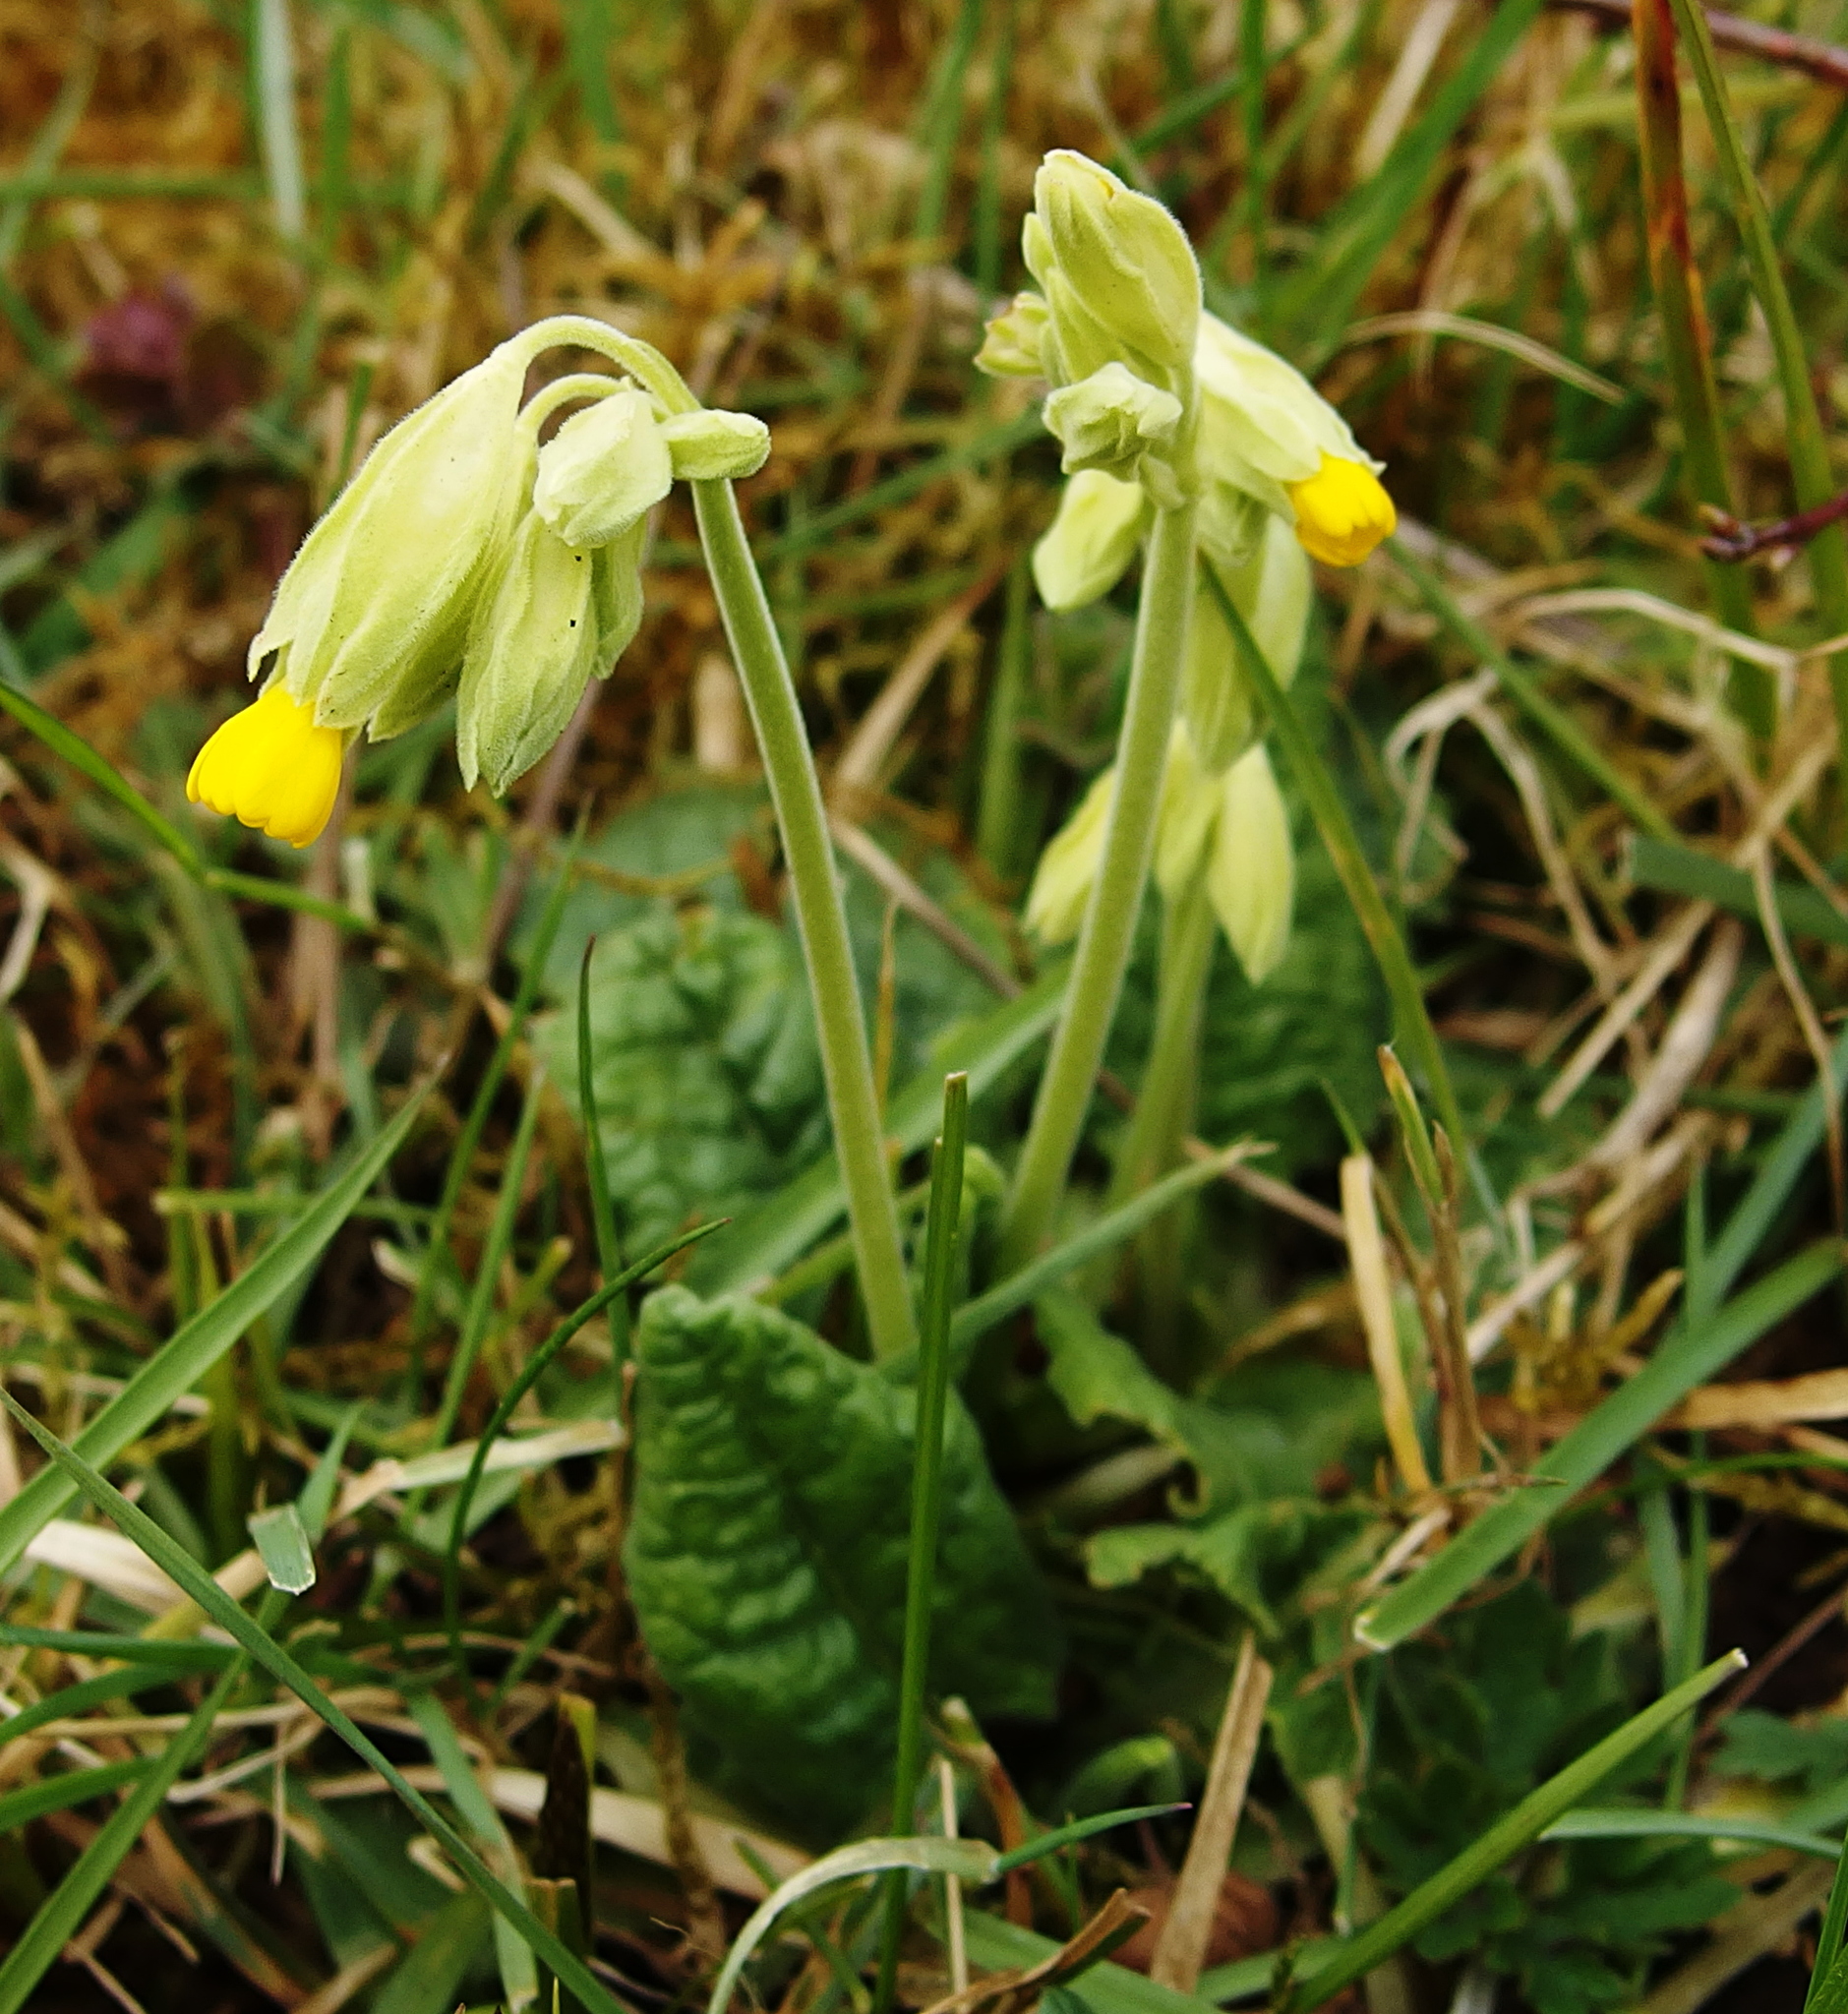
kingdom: Plantae
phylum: Tracheophyta
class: Magnoliopsida
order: Ericales
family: Primulaceae
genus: Primula
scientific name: Primula veris
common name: Cowslip
